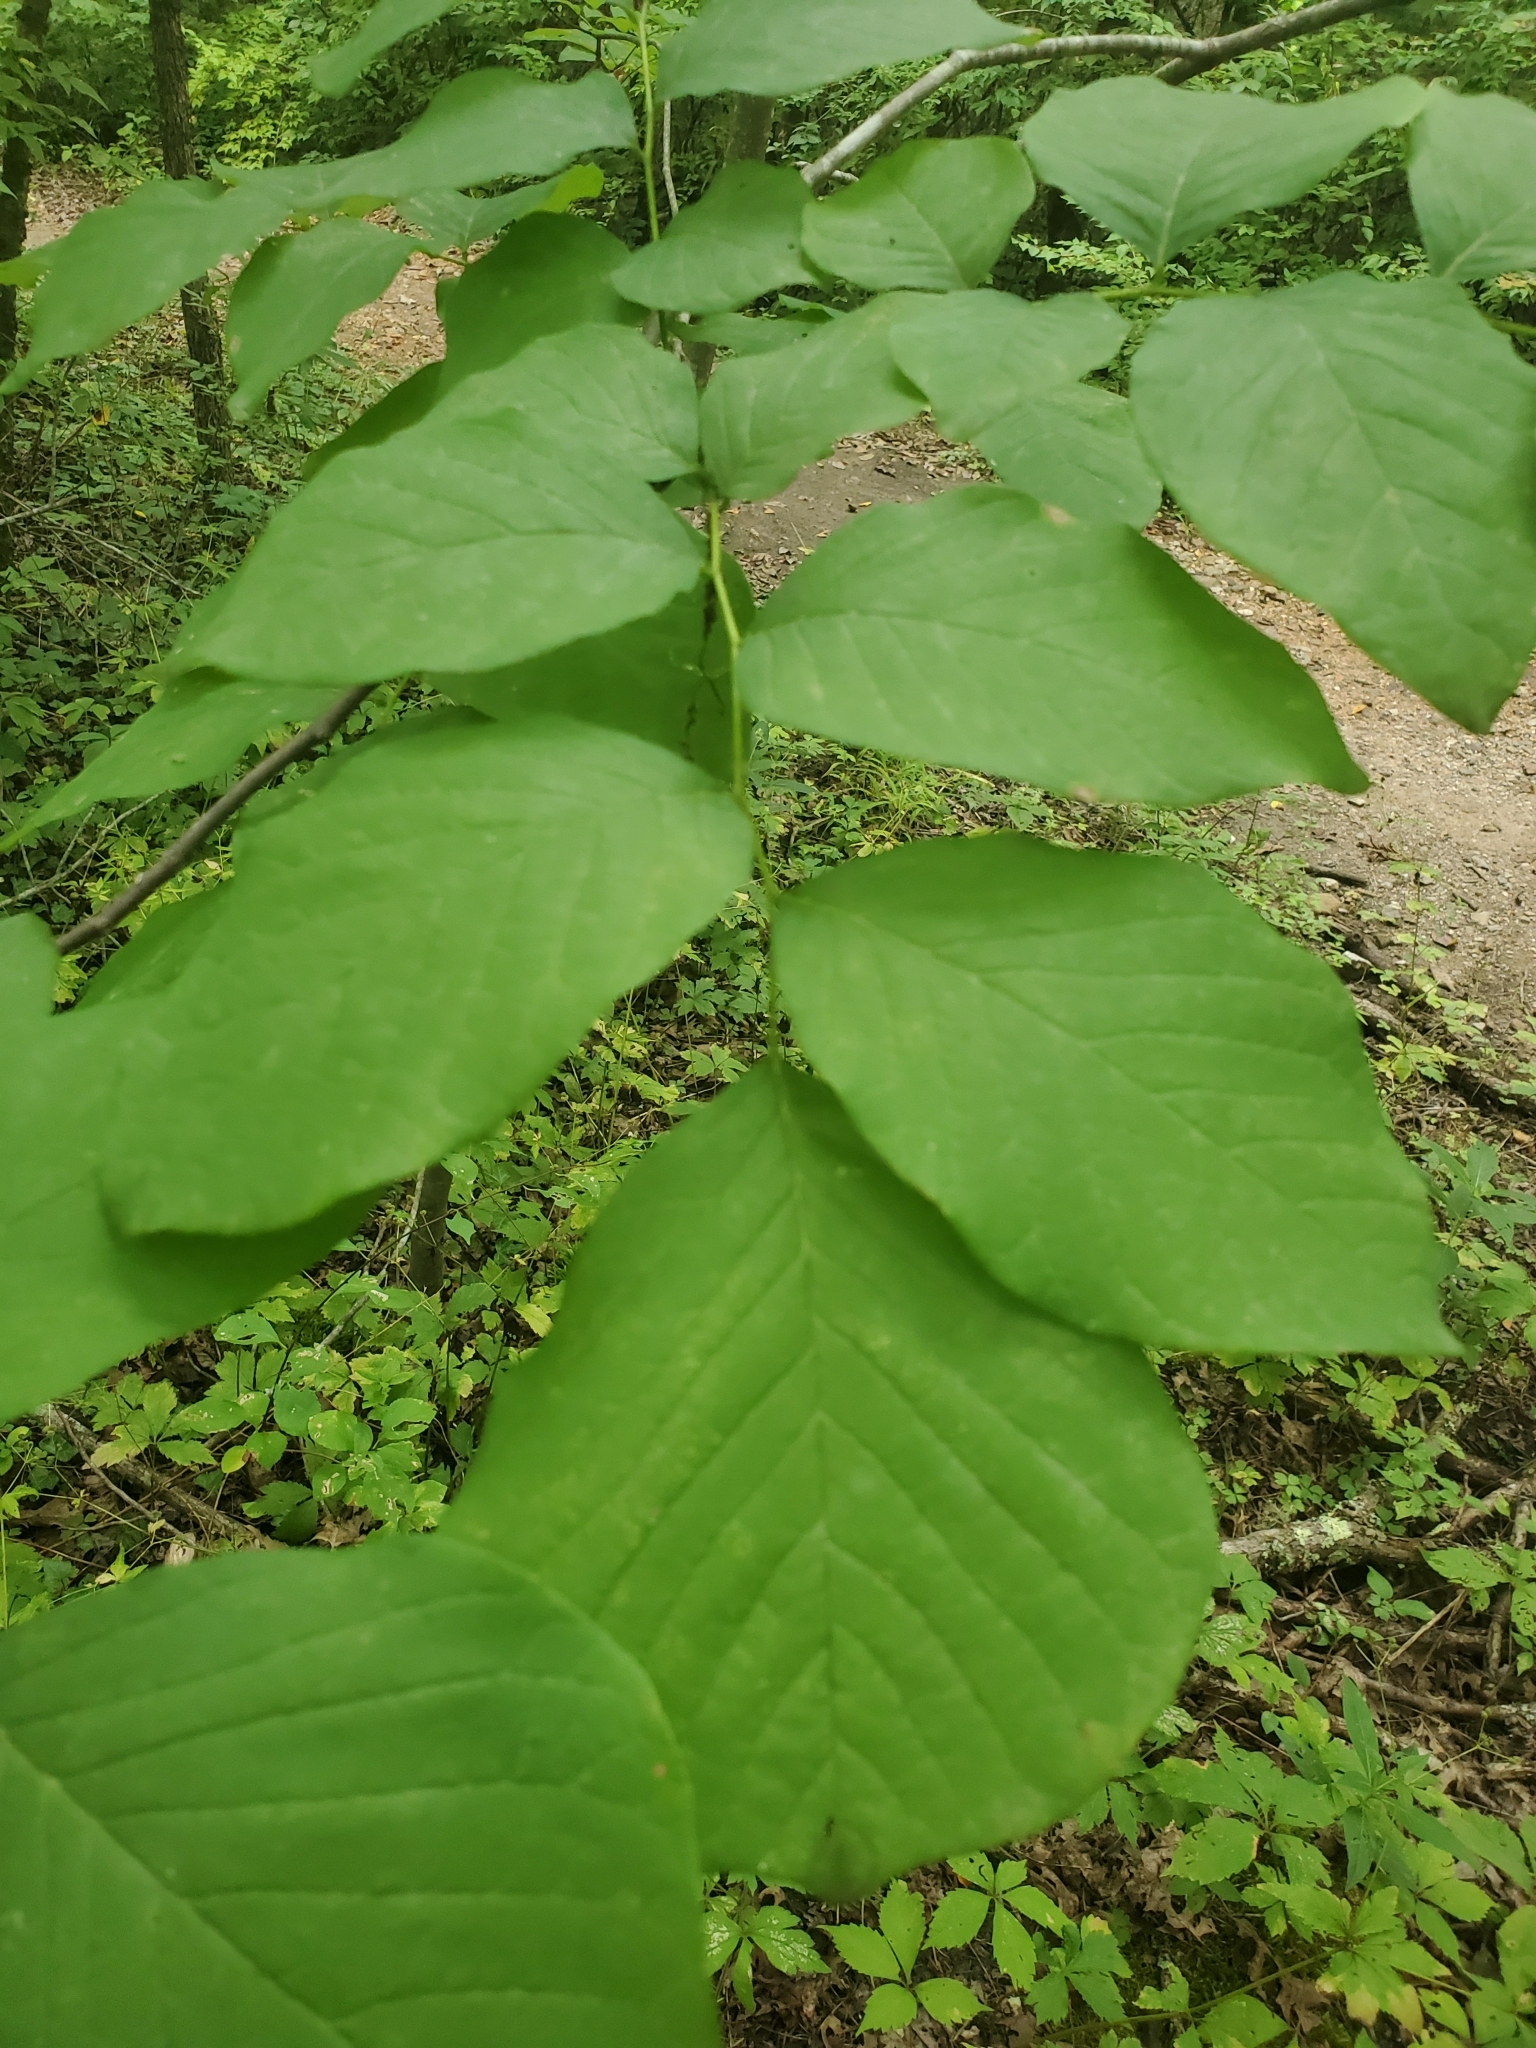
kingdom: Plantae
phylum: Tracheophyta
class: Magnoliopsida
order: Fabales
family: Fabaceae
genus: Cladrastis
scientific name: Cladrastis kentukea
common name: Kentucky yellow-wood
